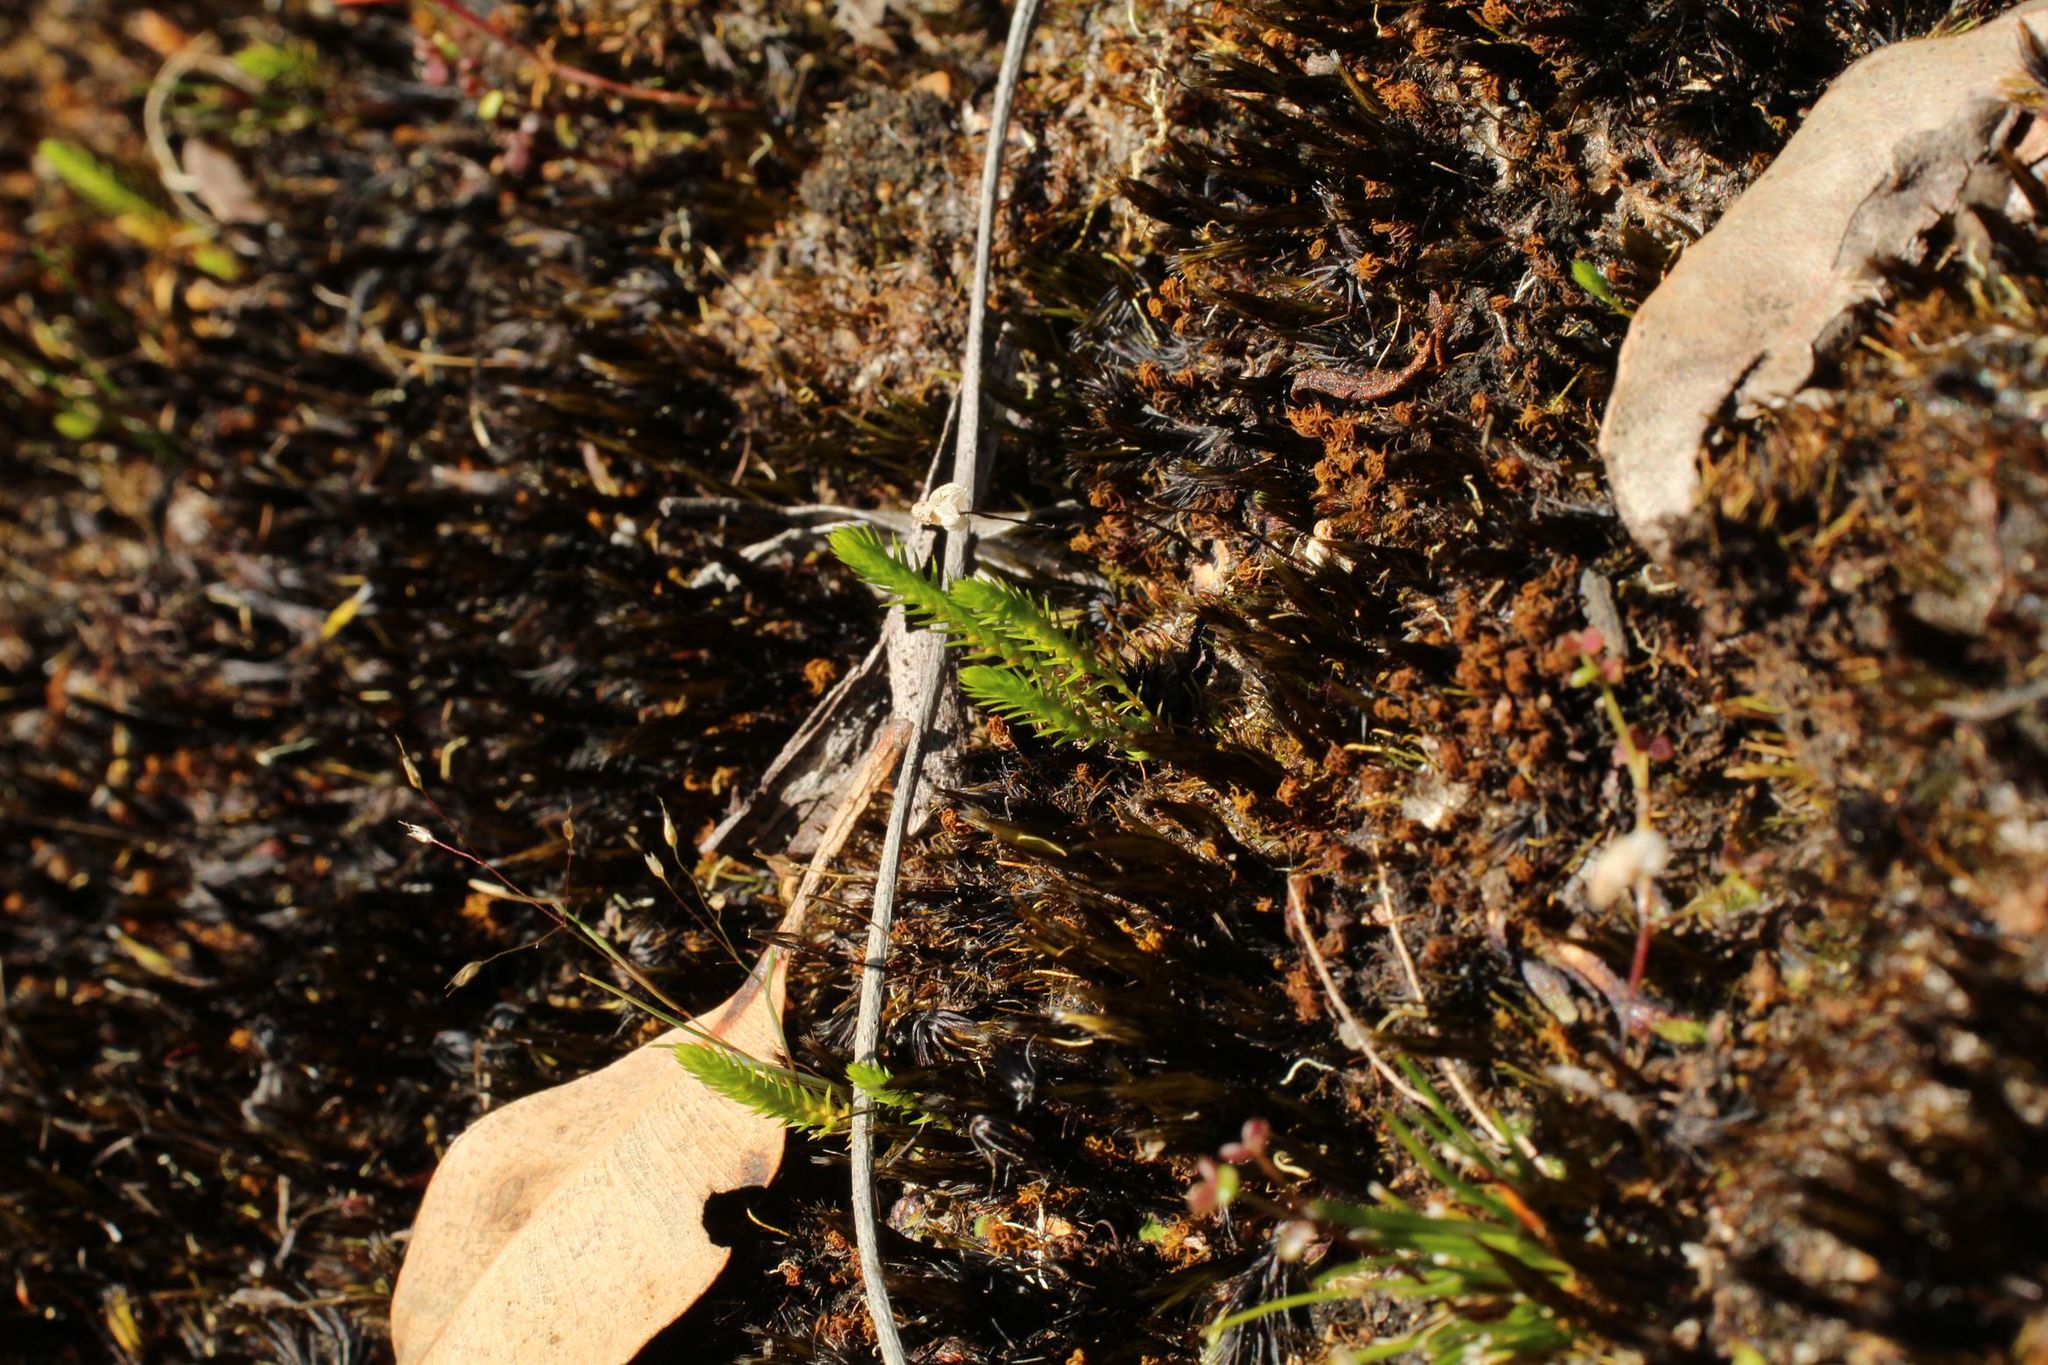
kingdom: Plantae
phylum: Tracheophyta
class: Lycopodiopsida
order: Selaginellales
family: Selaginellaceae
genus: Selaginella
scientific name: Selaginella gracillima
